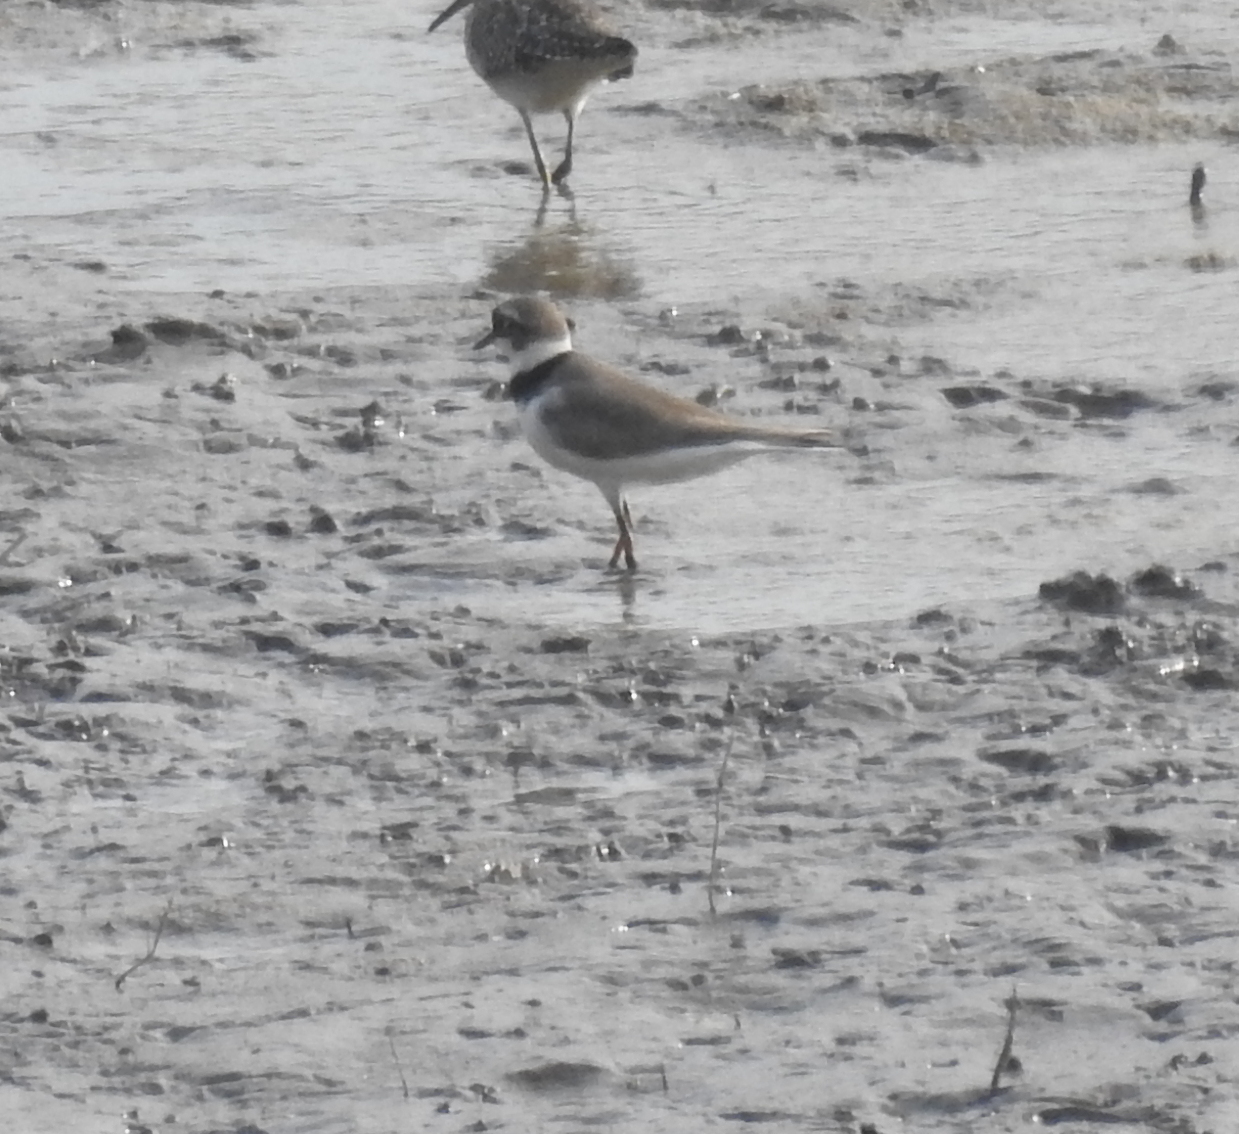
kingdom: Animalia
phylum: Chordata
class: Aves
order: Charadriiformes
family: Charadriidae
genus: Charadrius
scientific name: Charadrius dubius
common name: Little ringed plover
